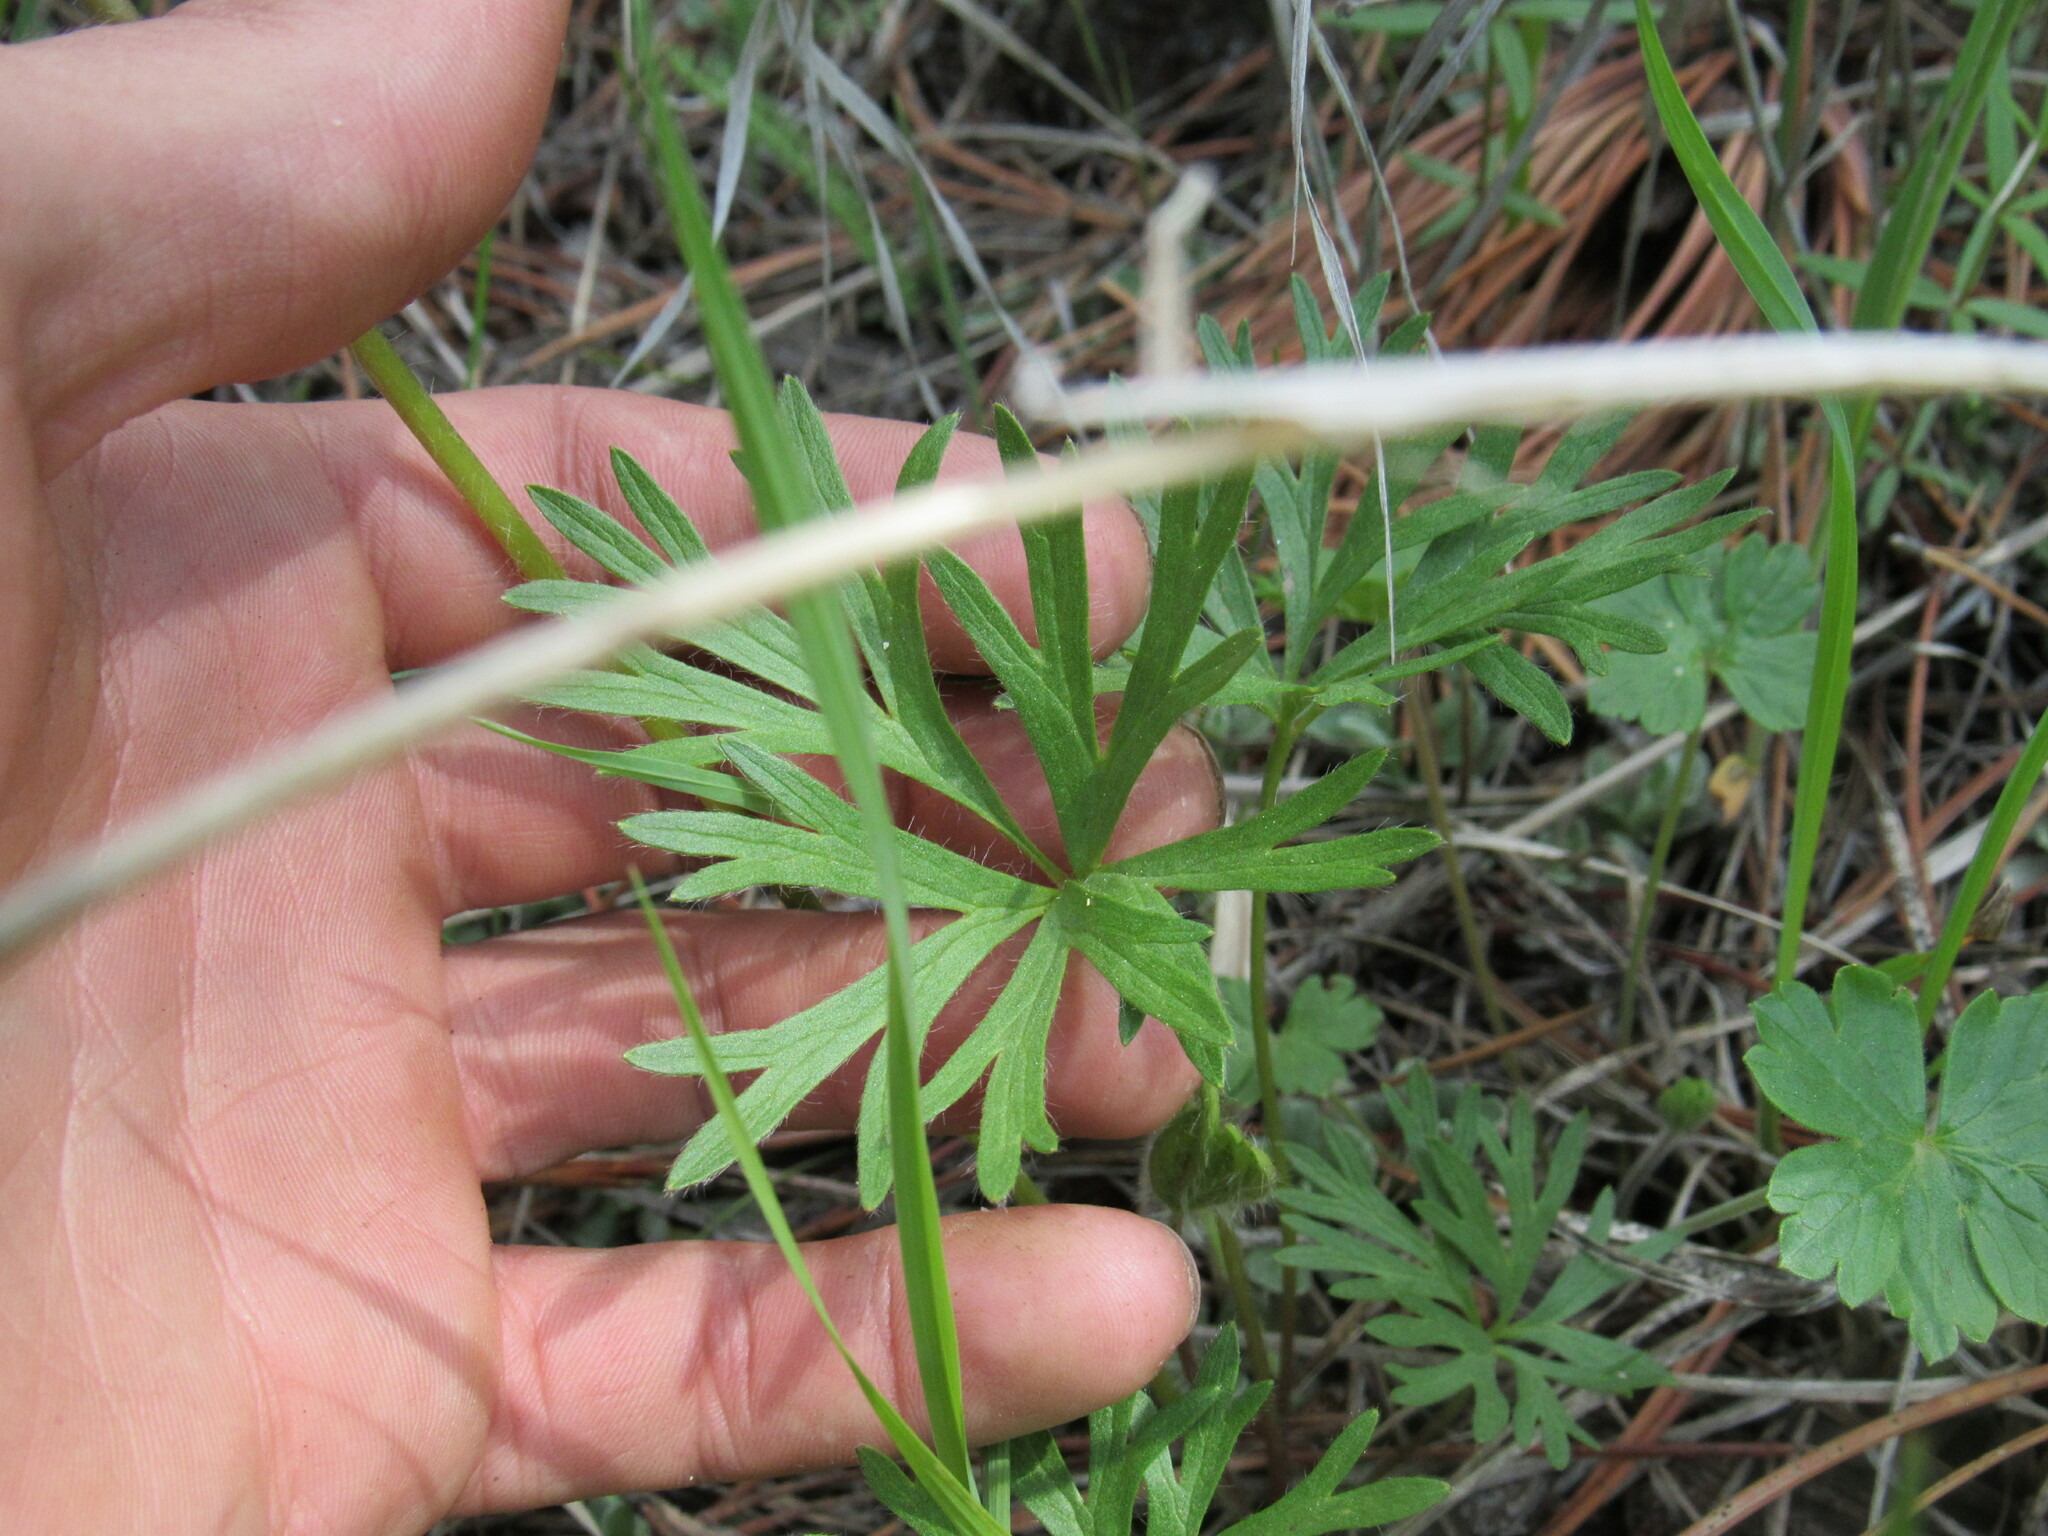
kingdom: Plantae
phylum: Tracheophyta
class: Magnoliopsida
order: Ranunculales
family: Ranunculaceae
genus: Anemone
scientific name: Anemone multifida
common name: Bird's-foot anemone
